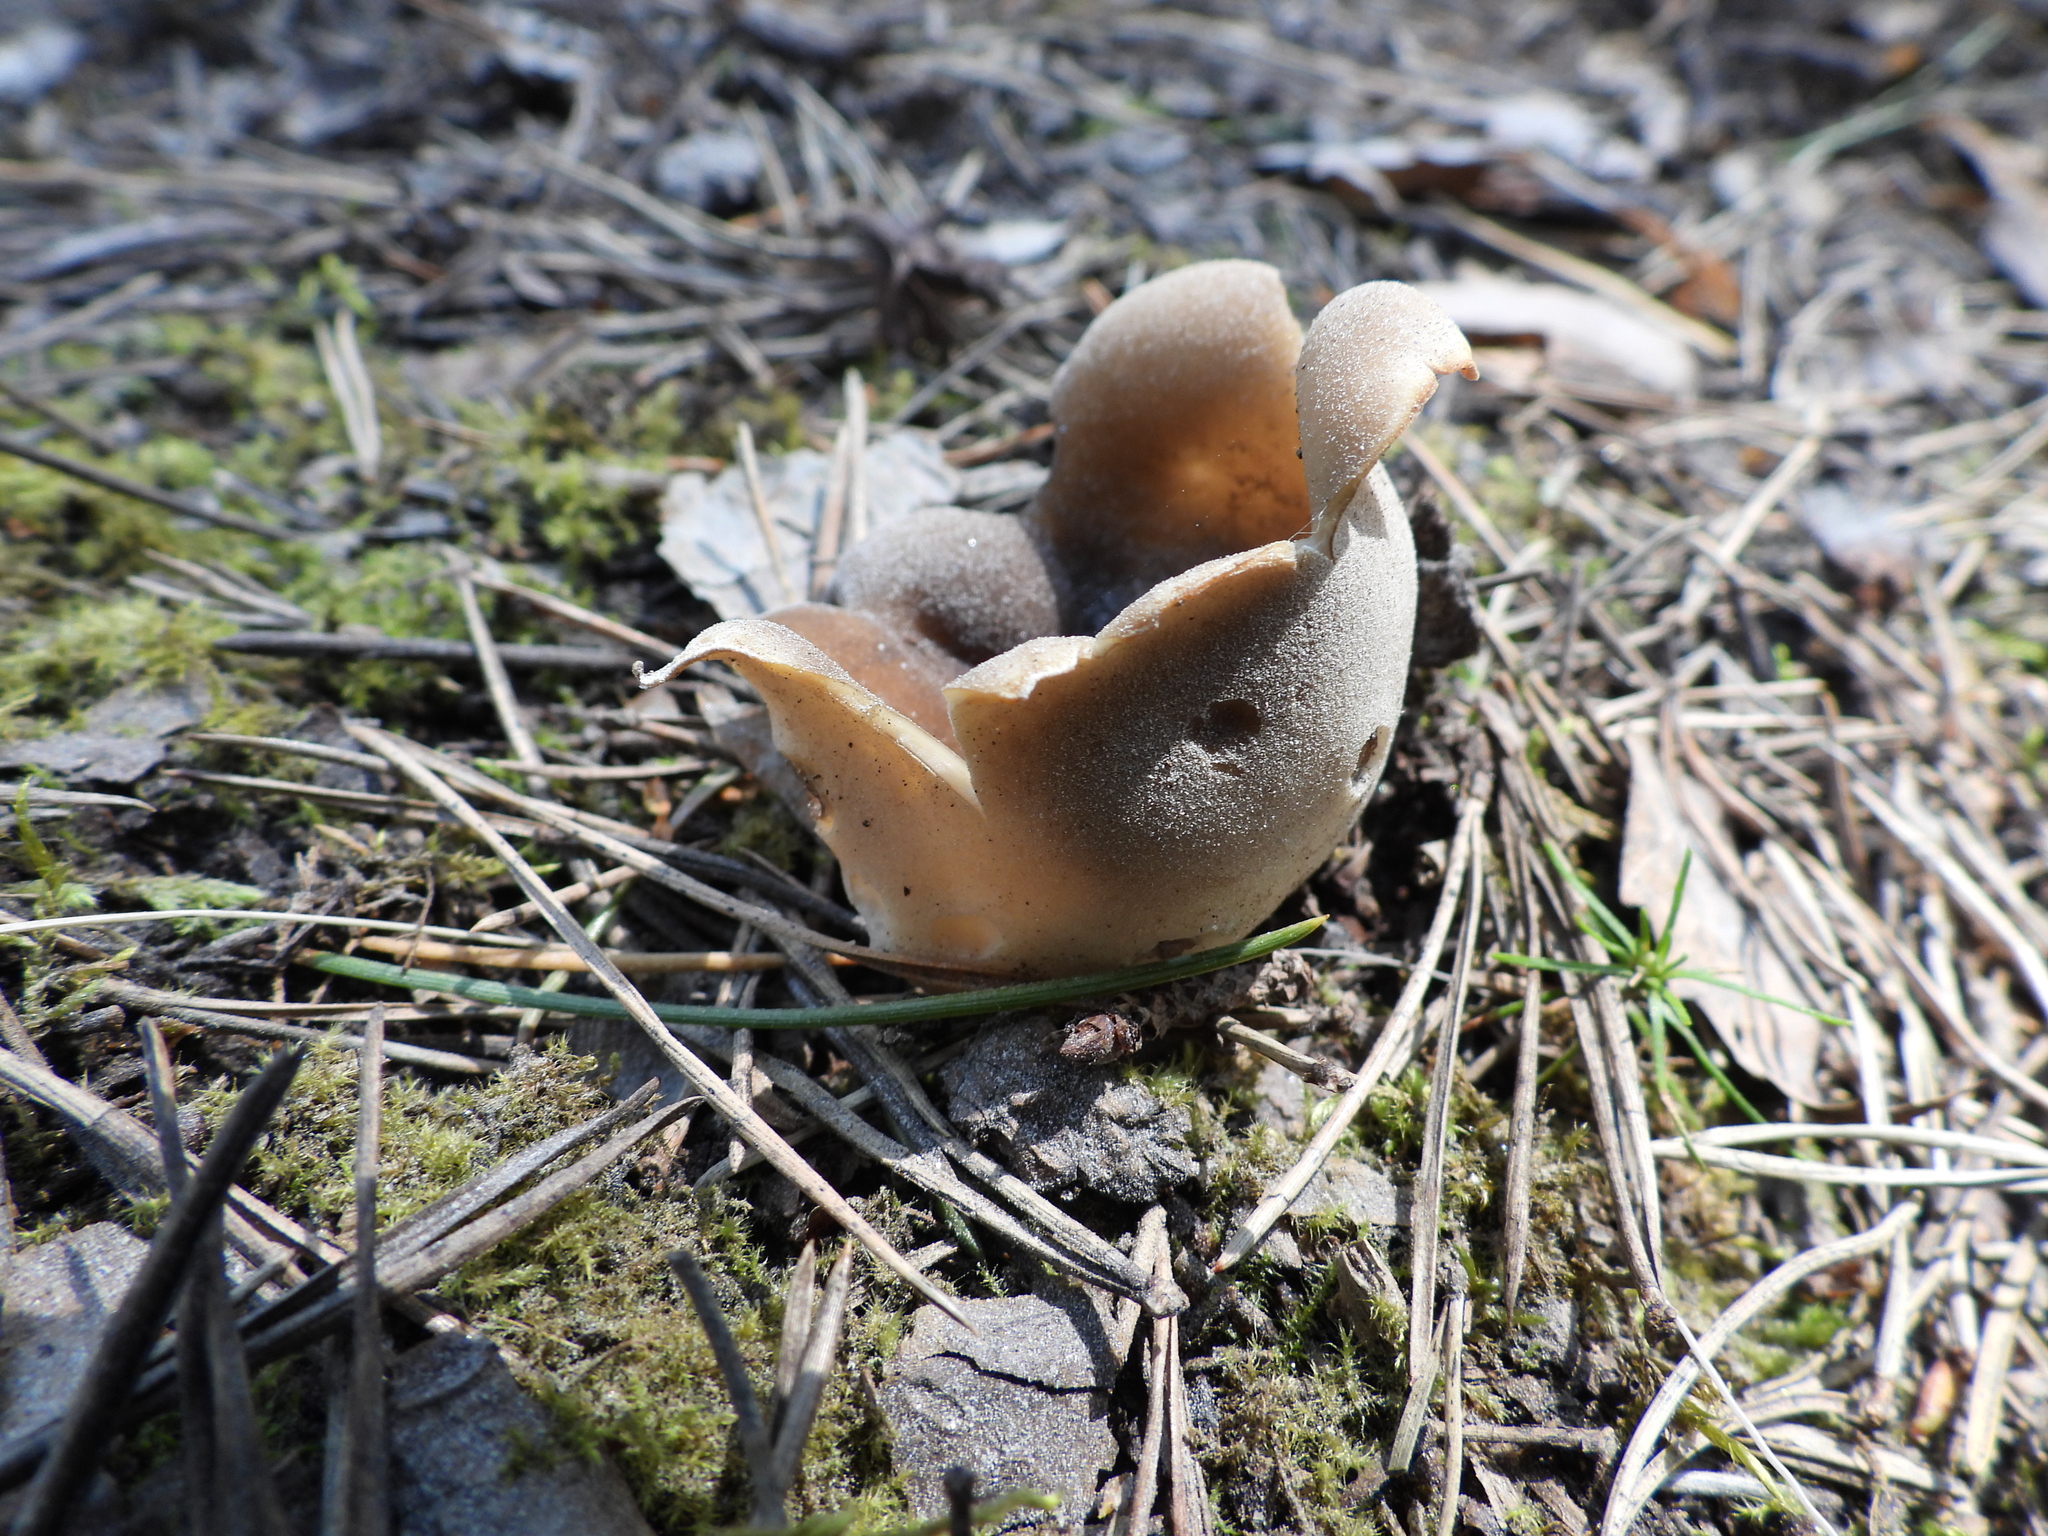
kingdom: Fungi
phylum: Ascomycota
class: Pezizomycetes
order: Pezizales
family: Helvellaceae
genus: Dissingia
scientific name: Dissingia leucomelaena
